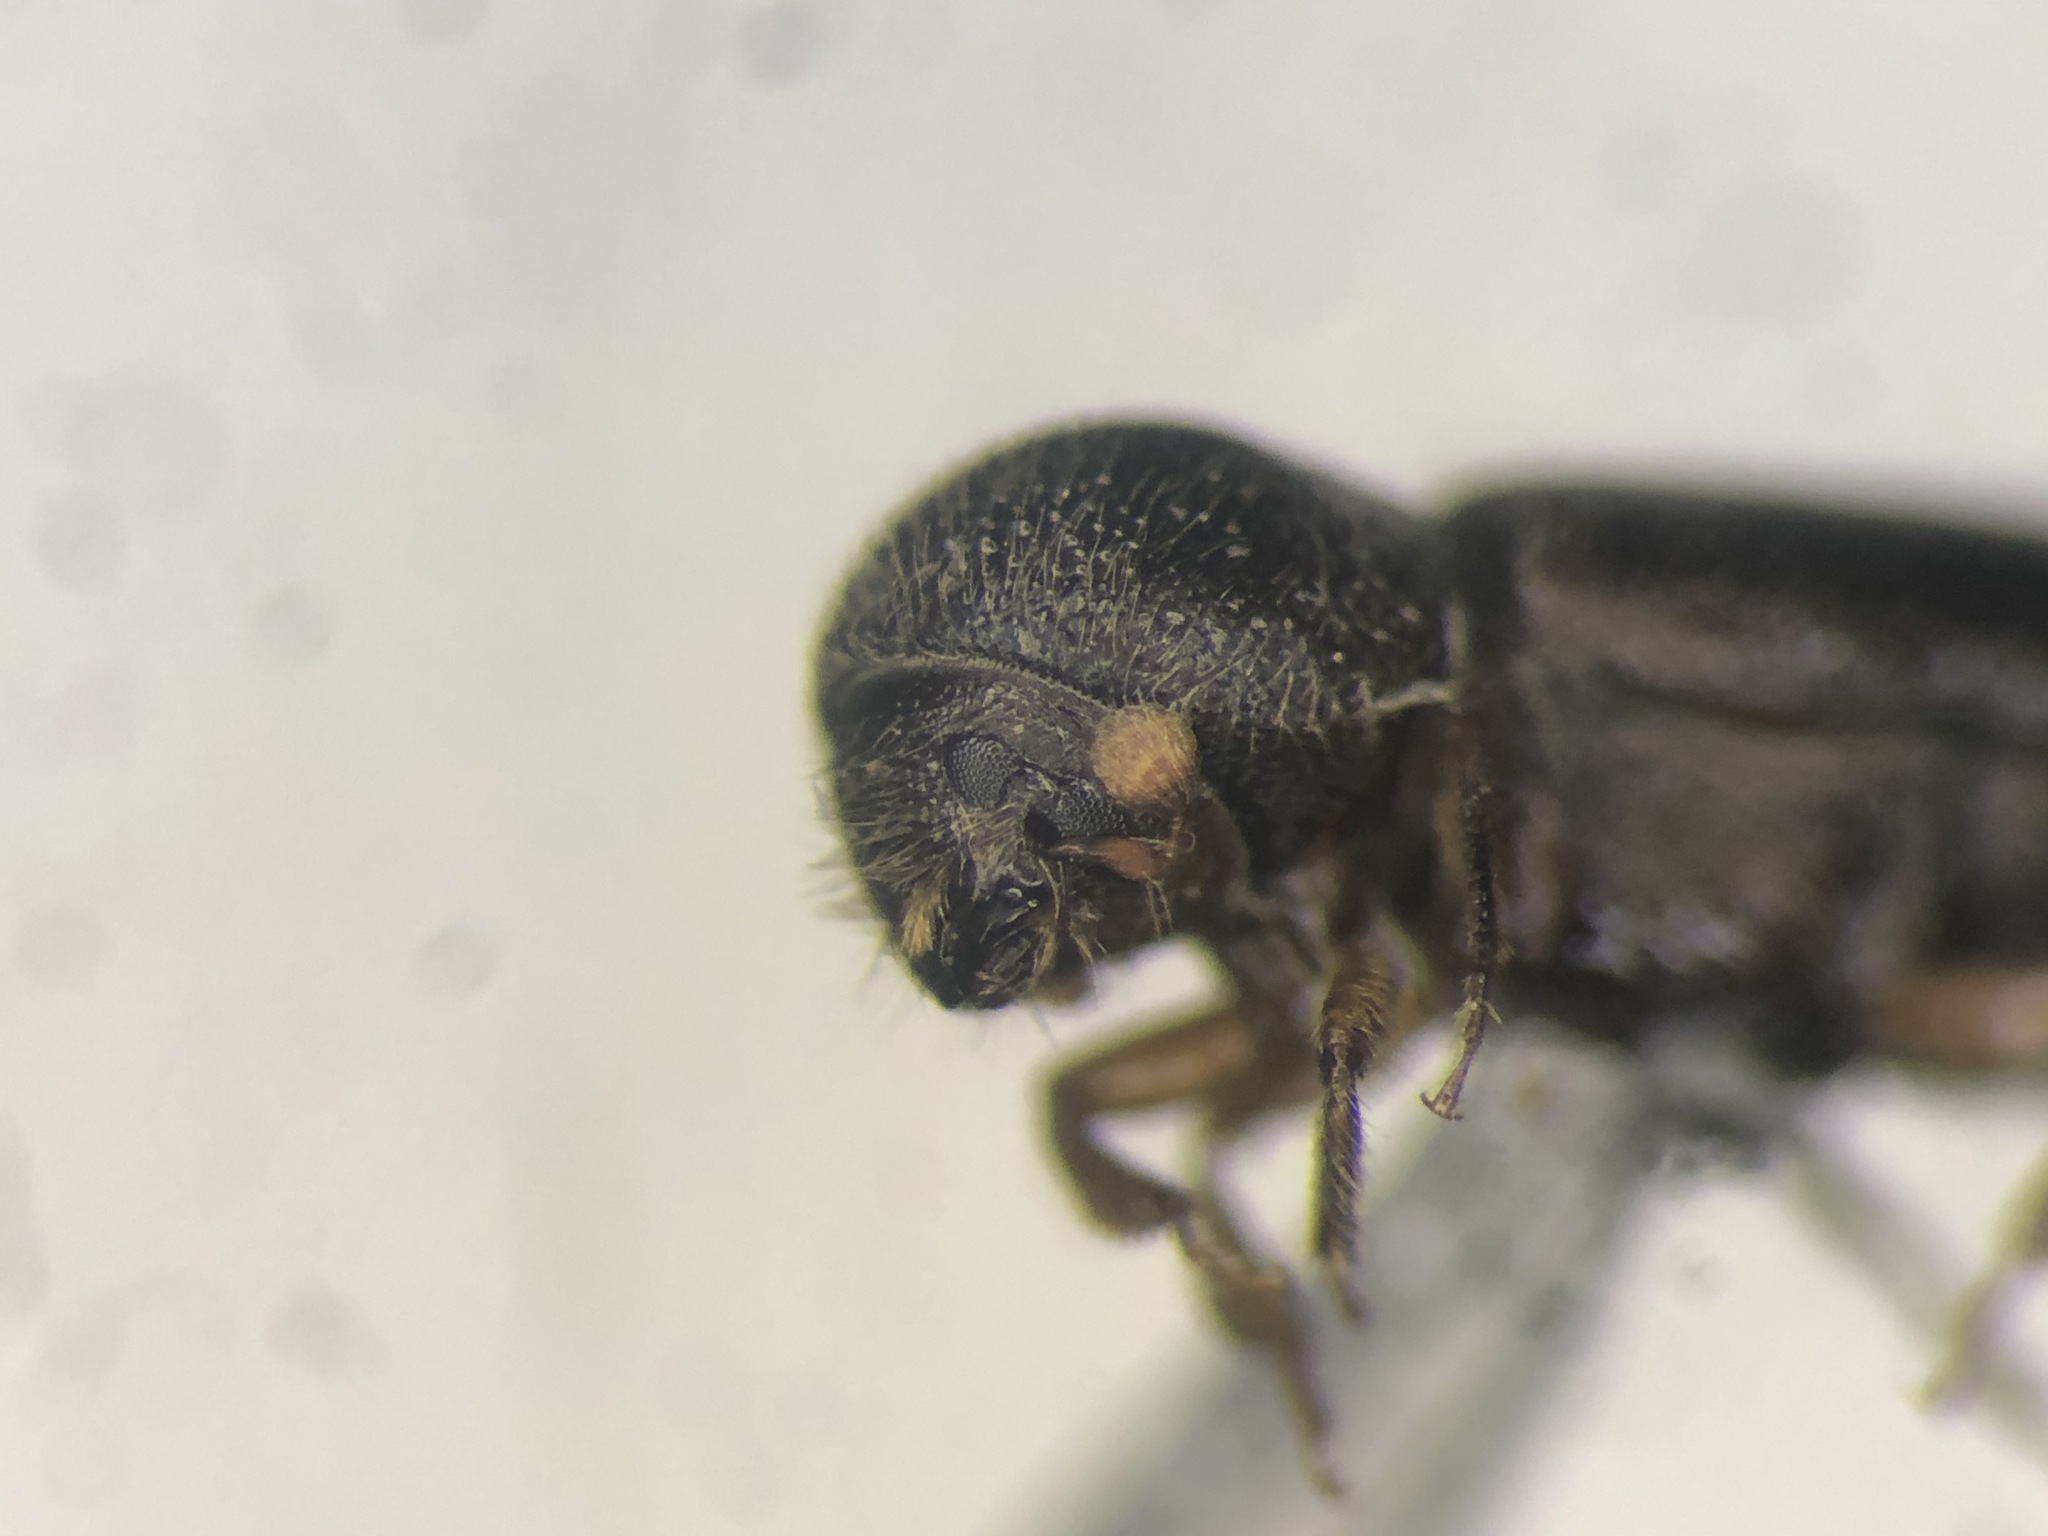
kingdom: Animalia
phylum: Arthropoda
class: Insecta
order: Coleoptera
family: Curculionidae
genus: Xyloterinus
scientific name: Xyloterinus politus
